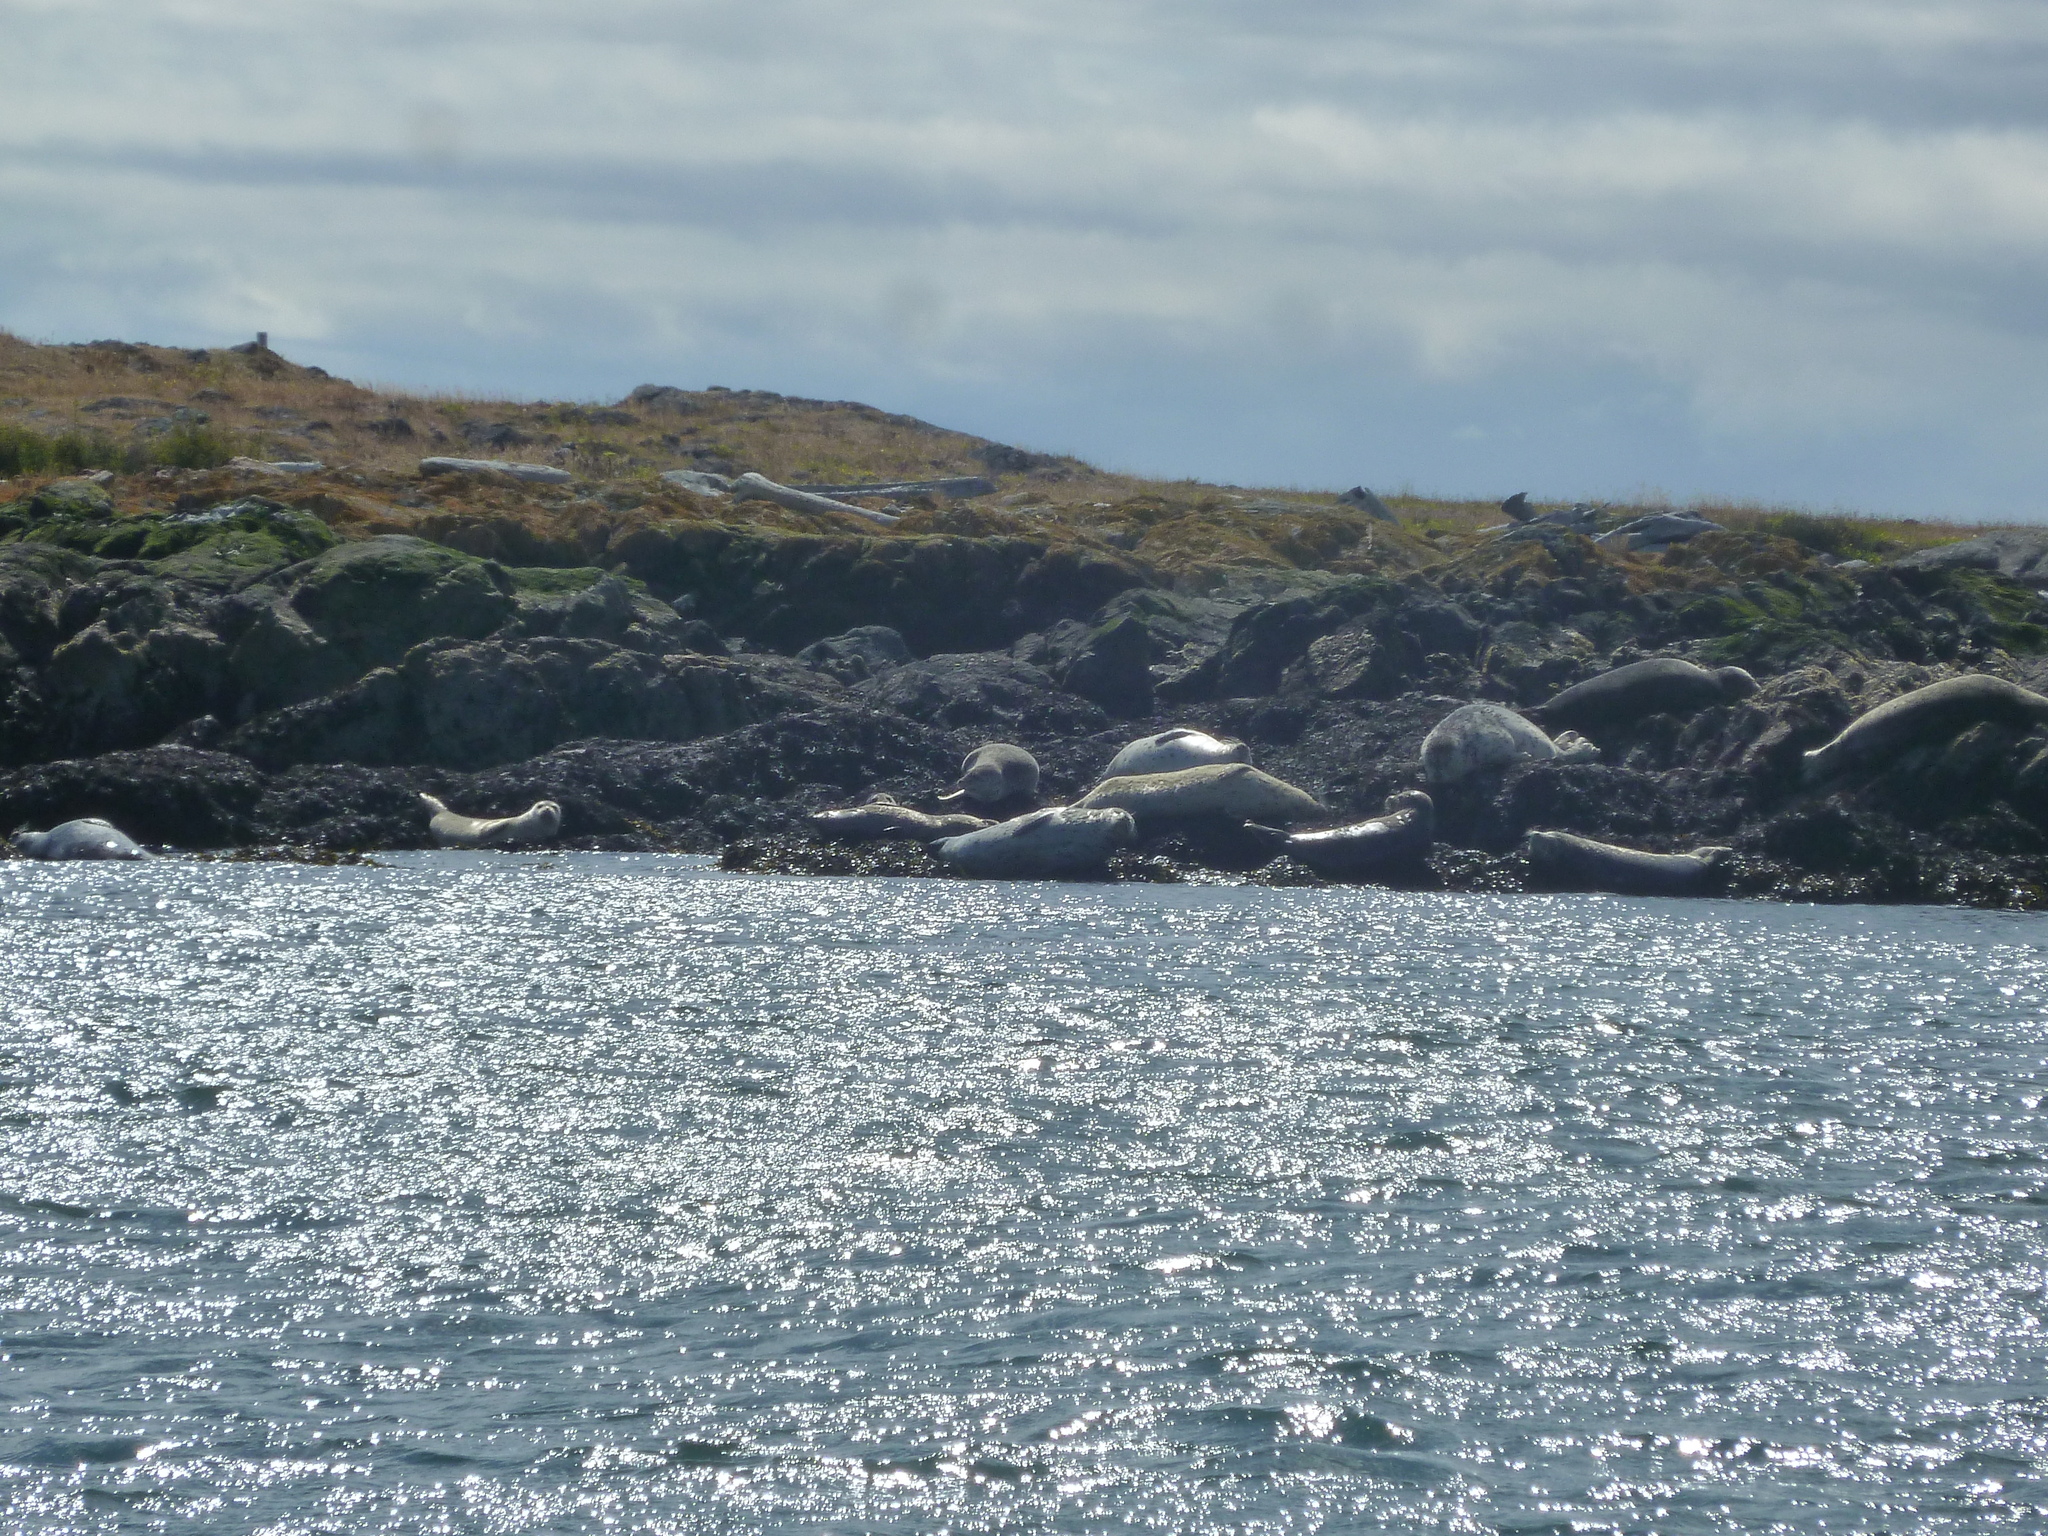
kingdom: Animalia
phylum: Chordata
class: Mammalia
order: Carnivora
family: Phocidae
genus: Phoca
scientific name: Phoca vitulina
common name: Harbor seal
